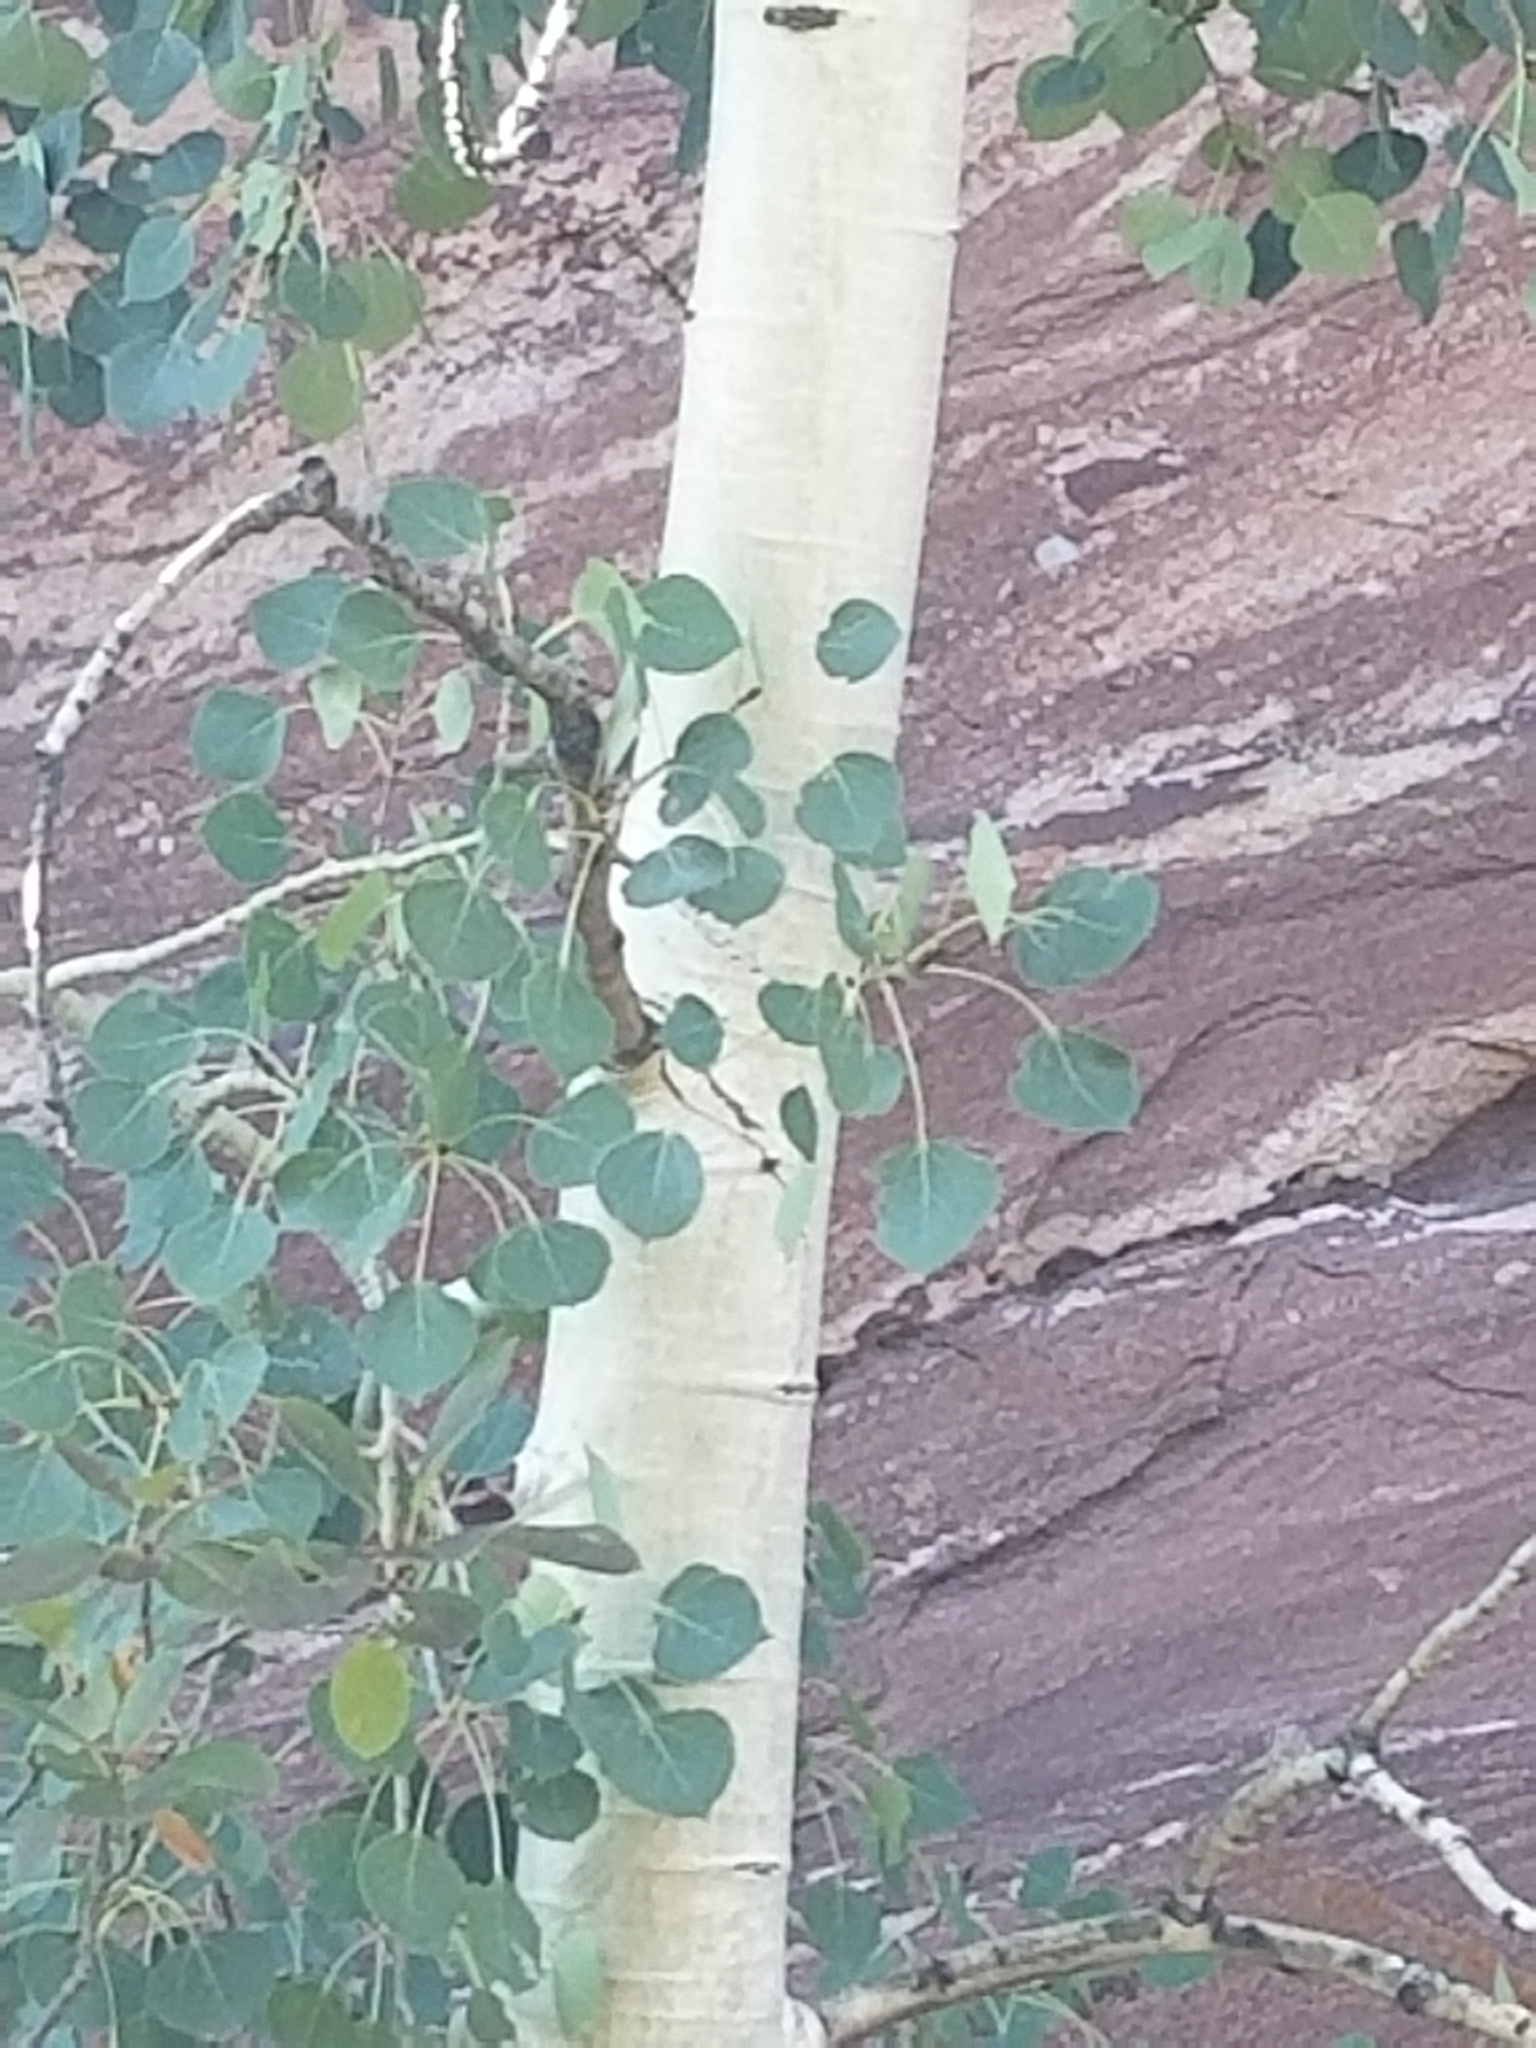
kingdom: Plantae
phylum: Tracheophyta
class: Magnoliopsida
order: Malpighiales
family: Salicaceae
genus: Populus
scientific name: Populus tremuloides
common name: Quaking aspen
